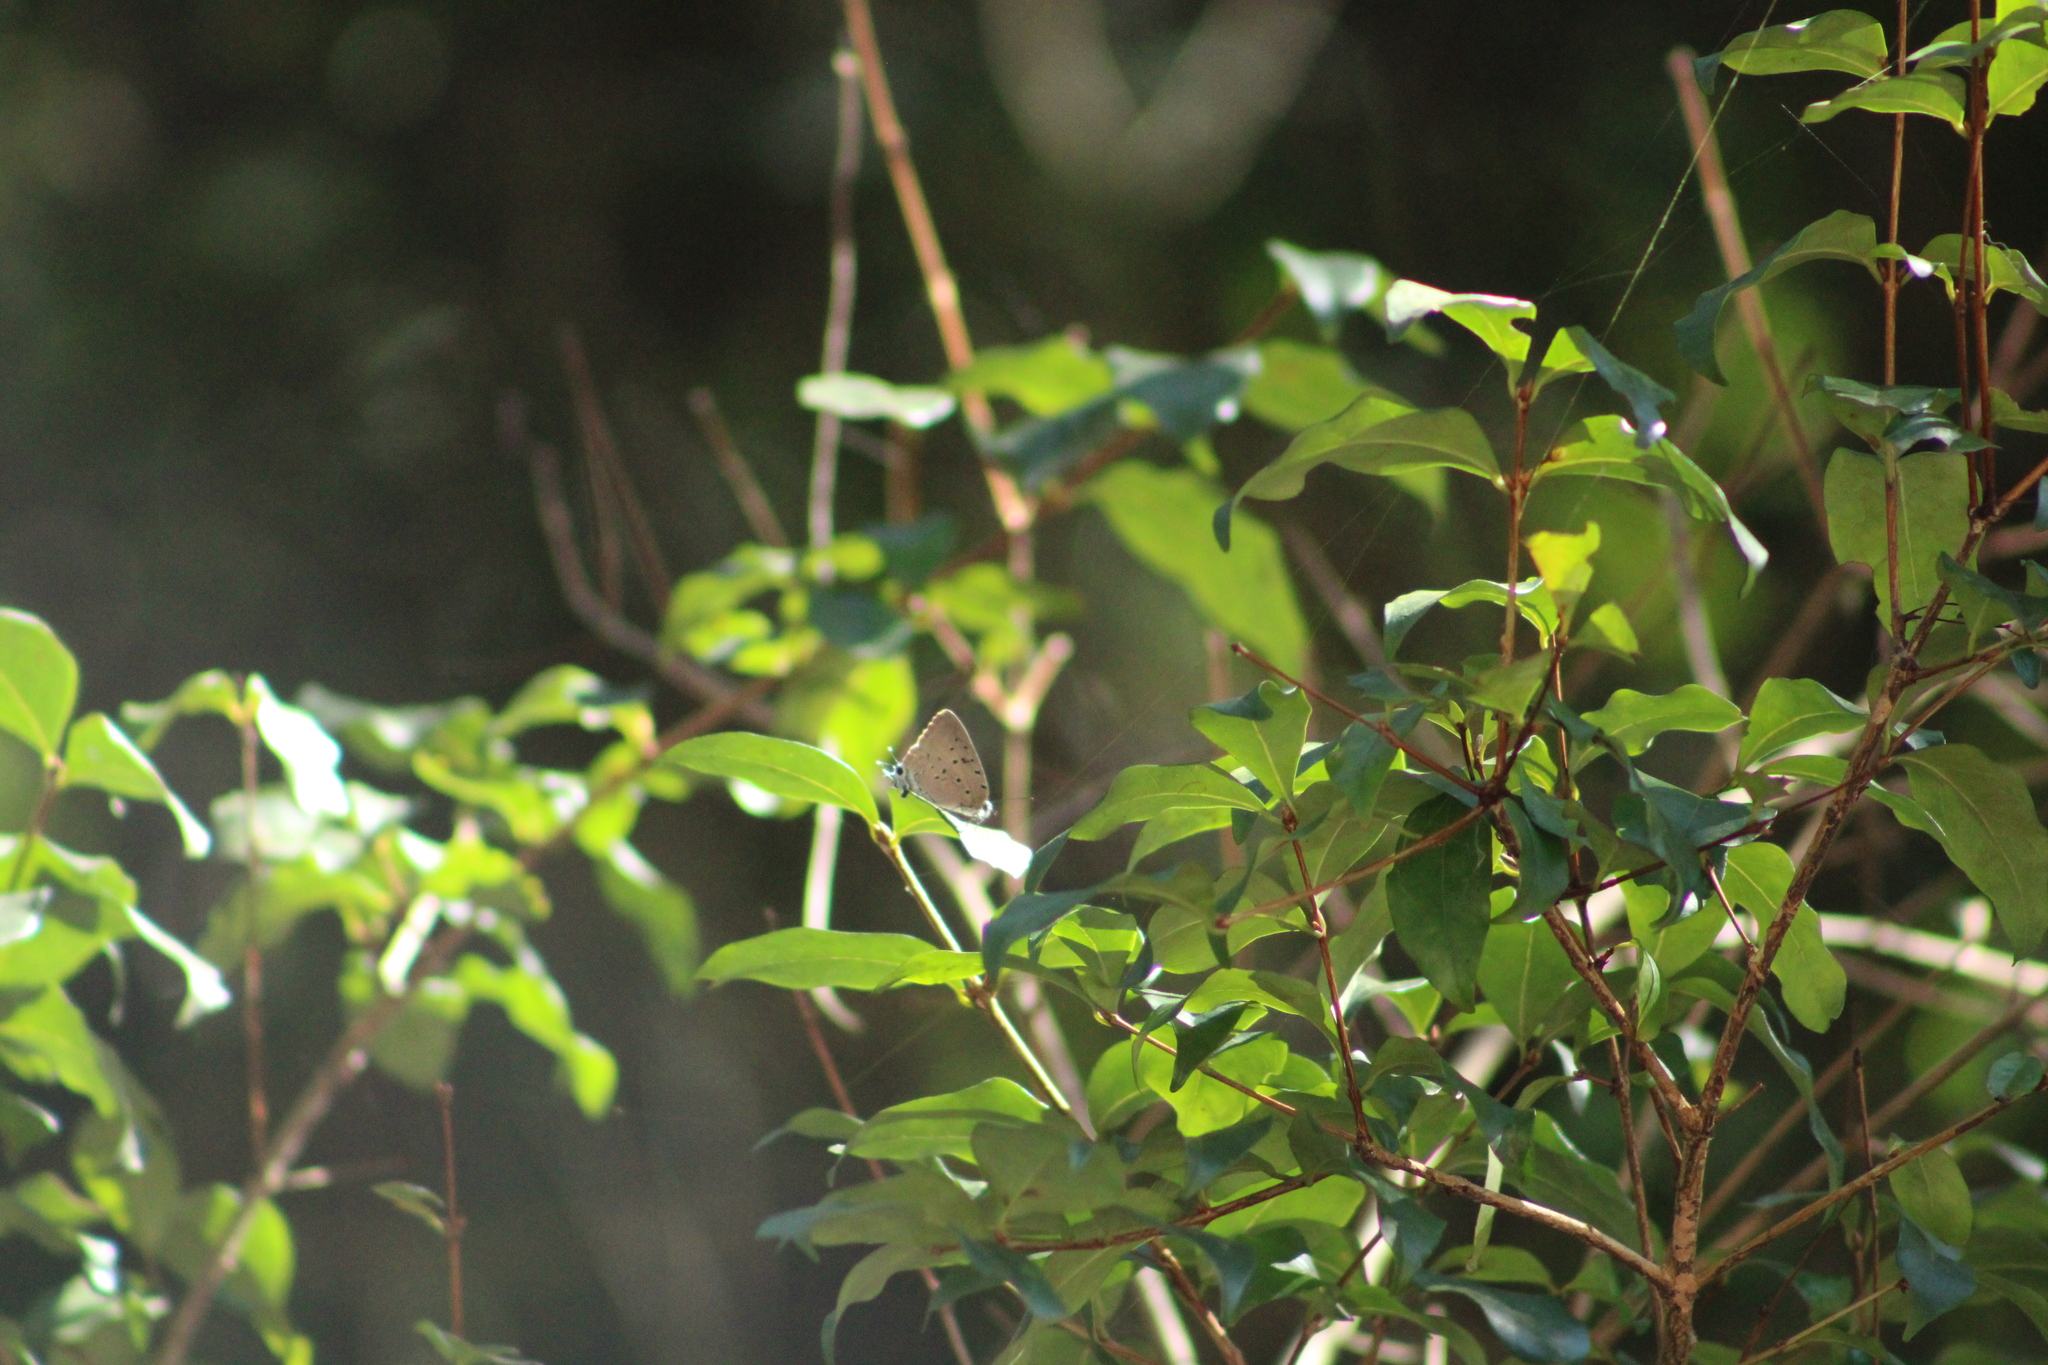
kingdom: Animalia
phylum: Arthropoda
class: Insecta
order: Lepidoptera
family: Lycaenidae
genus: Pseudolycaena
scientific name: Pseudolycaena marsyas
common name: Marsyas hairstreak
